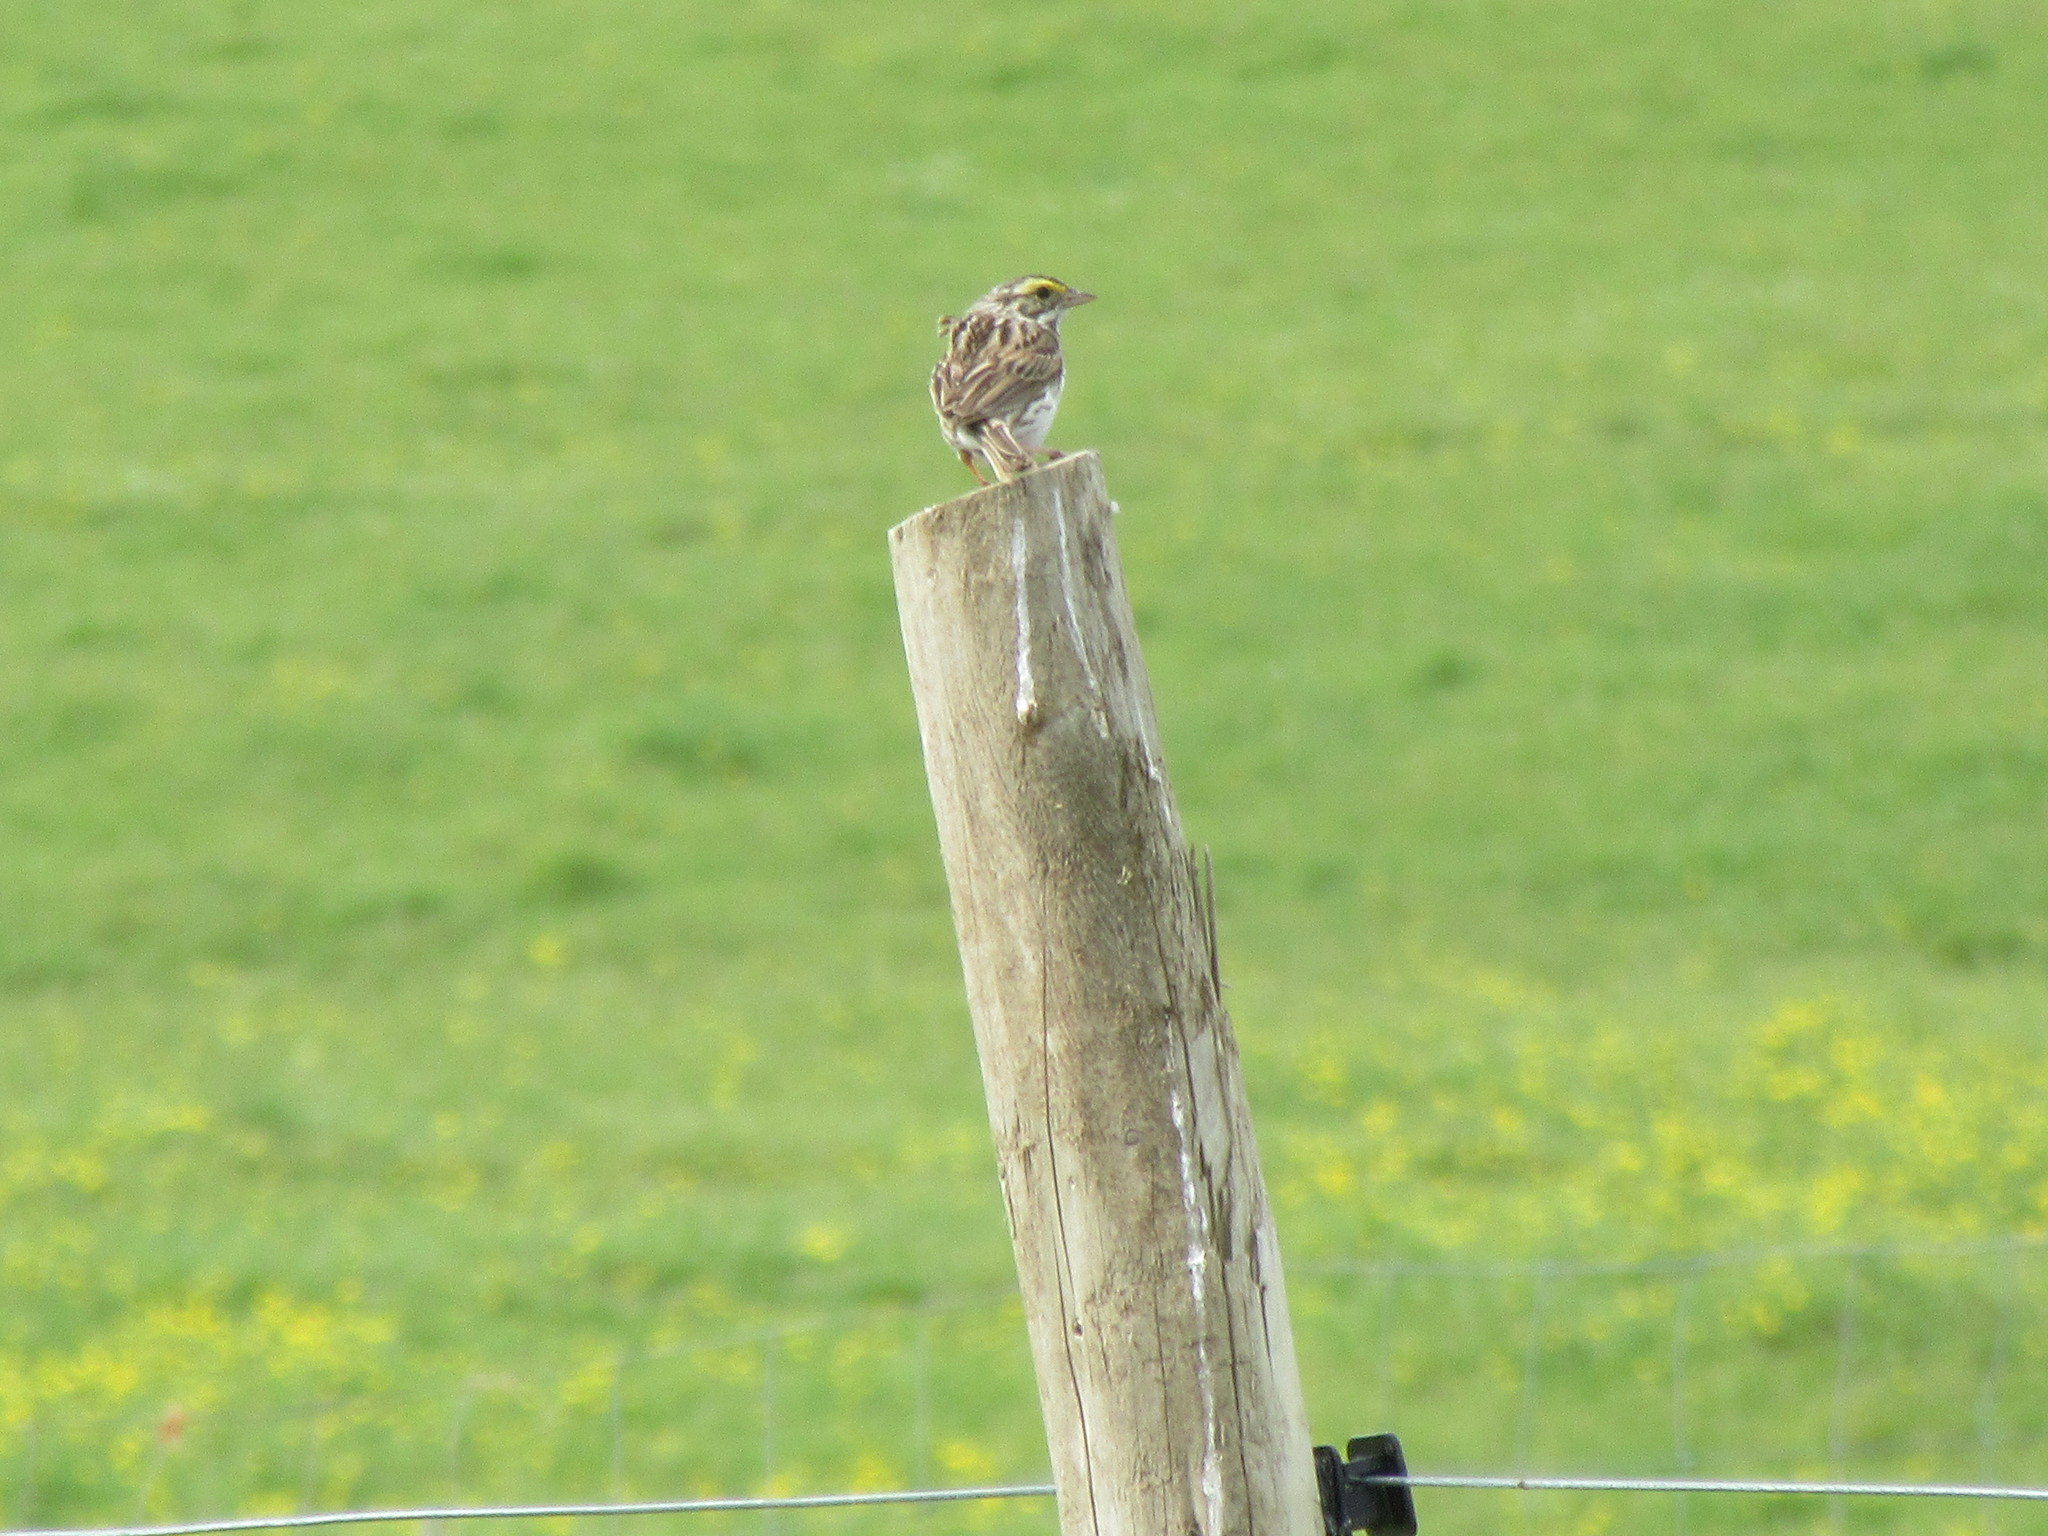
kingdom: Animalia
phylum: Chordata
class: Aves
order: Passeriformes
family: Passerellidae
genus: Passerculus
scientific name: Passerculus sandwichensis
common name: Savannah sparrow
